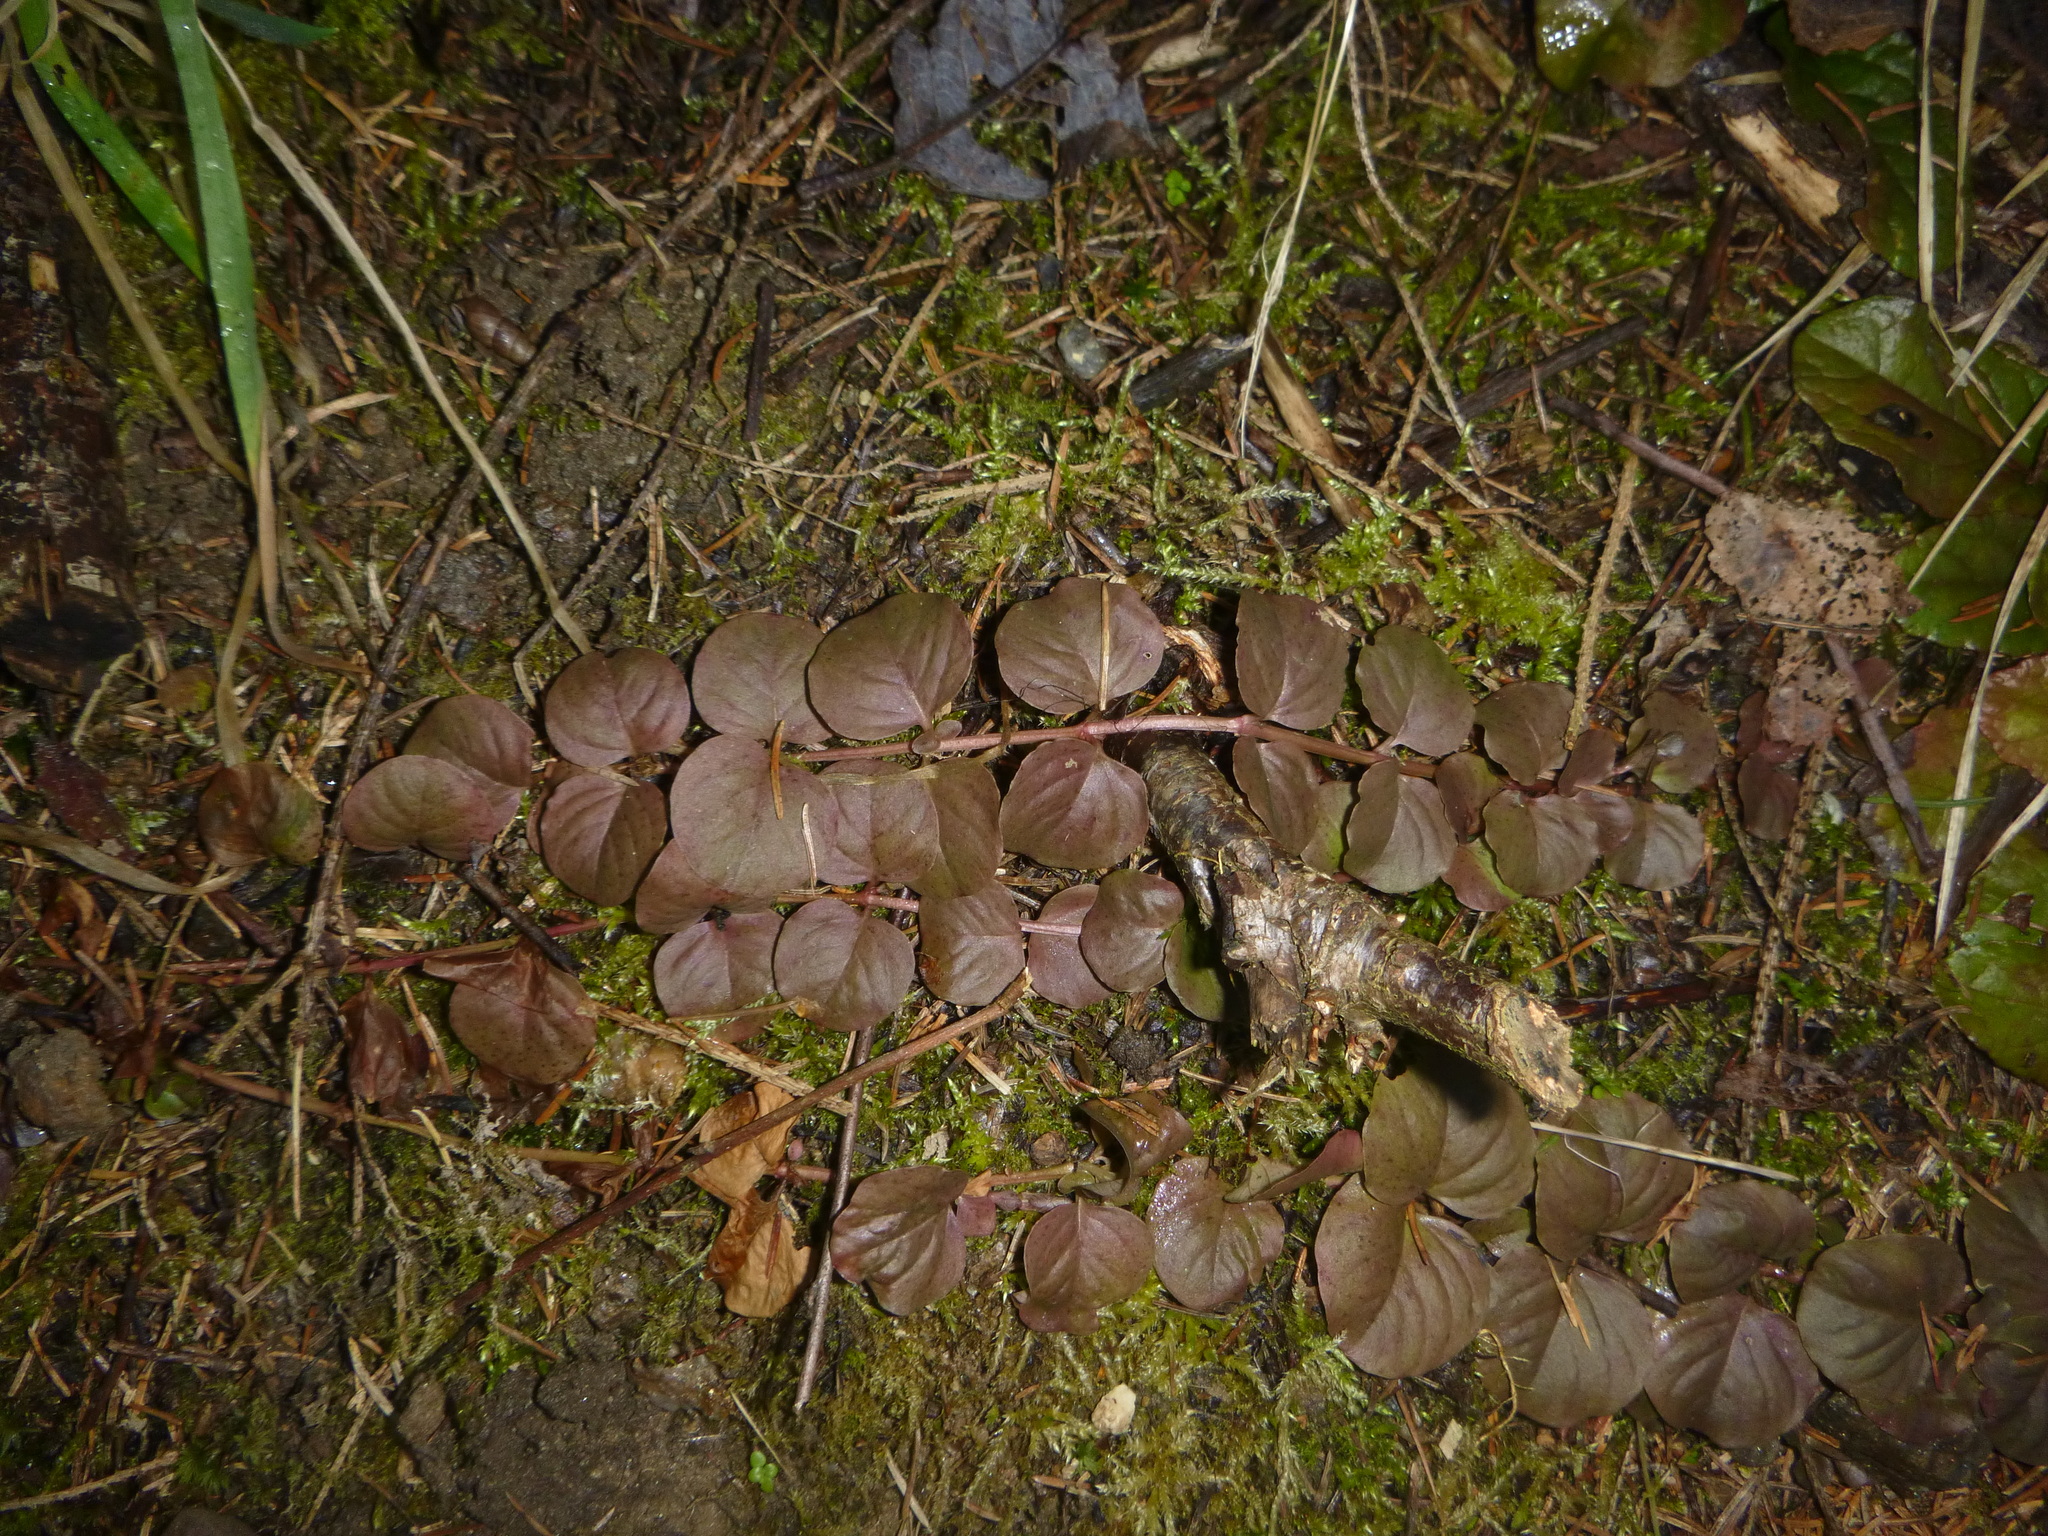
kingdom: Plantae
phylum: Tracheophyta
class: Magnoliopsida
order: Ericales
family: Primulaceae
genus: Lysimachia
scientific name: Lysimachia nummularia
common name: Moneywort
